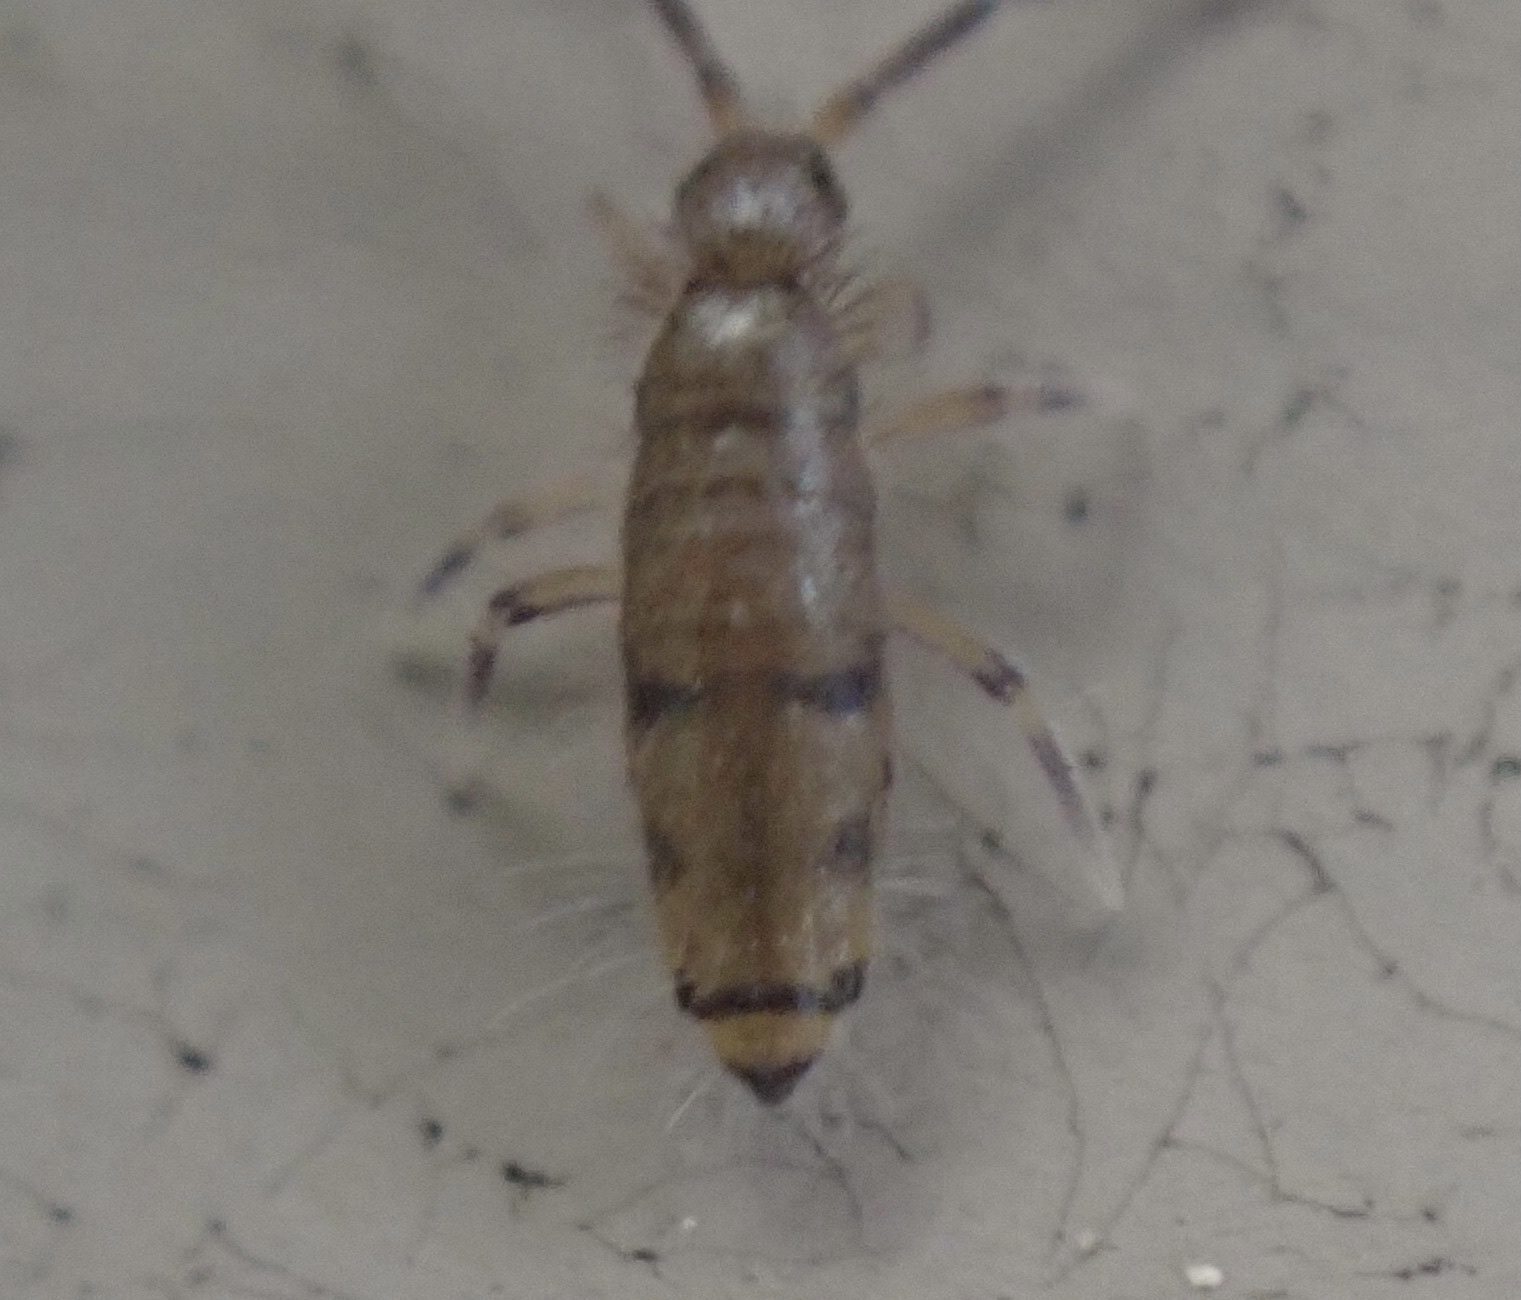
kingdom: Animalia
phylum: Arthropoda
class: Collembola
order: Entomobryomorpha
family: Entomobryidae
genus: Willowsia
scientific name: Willowsia nigromaculata
